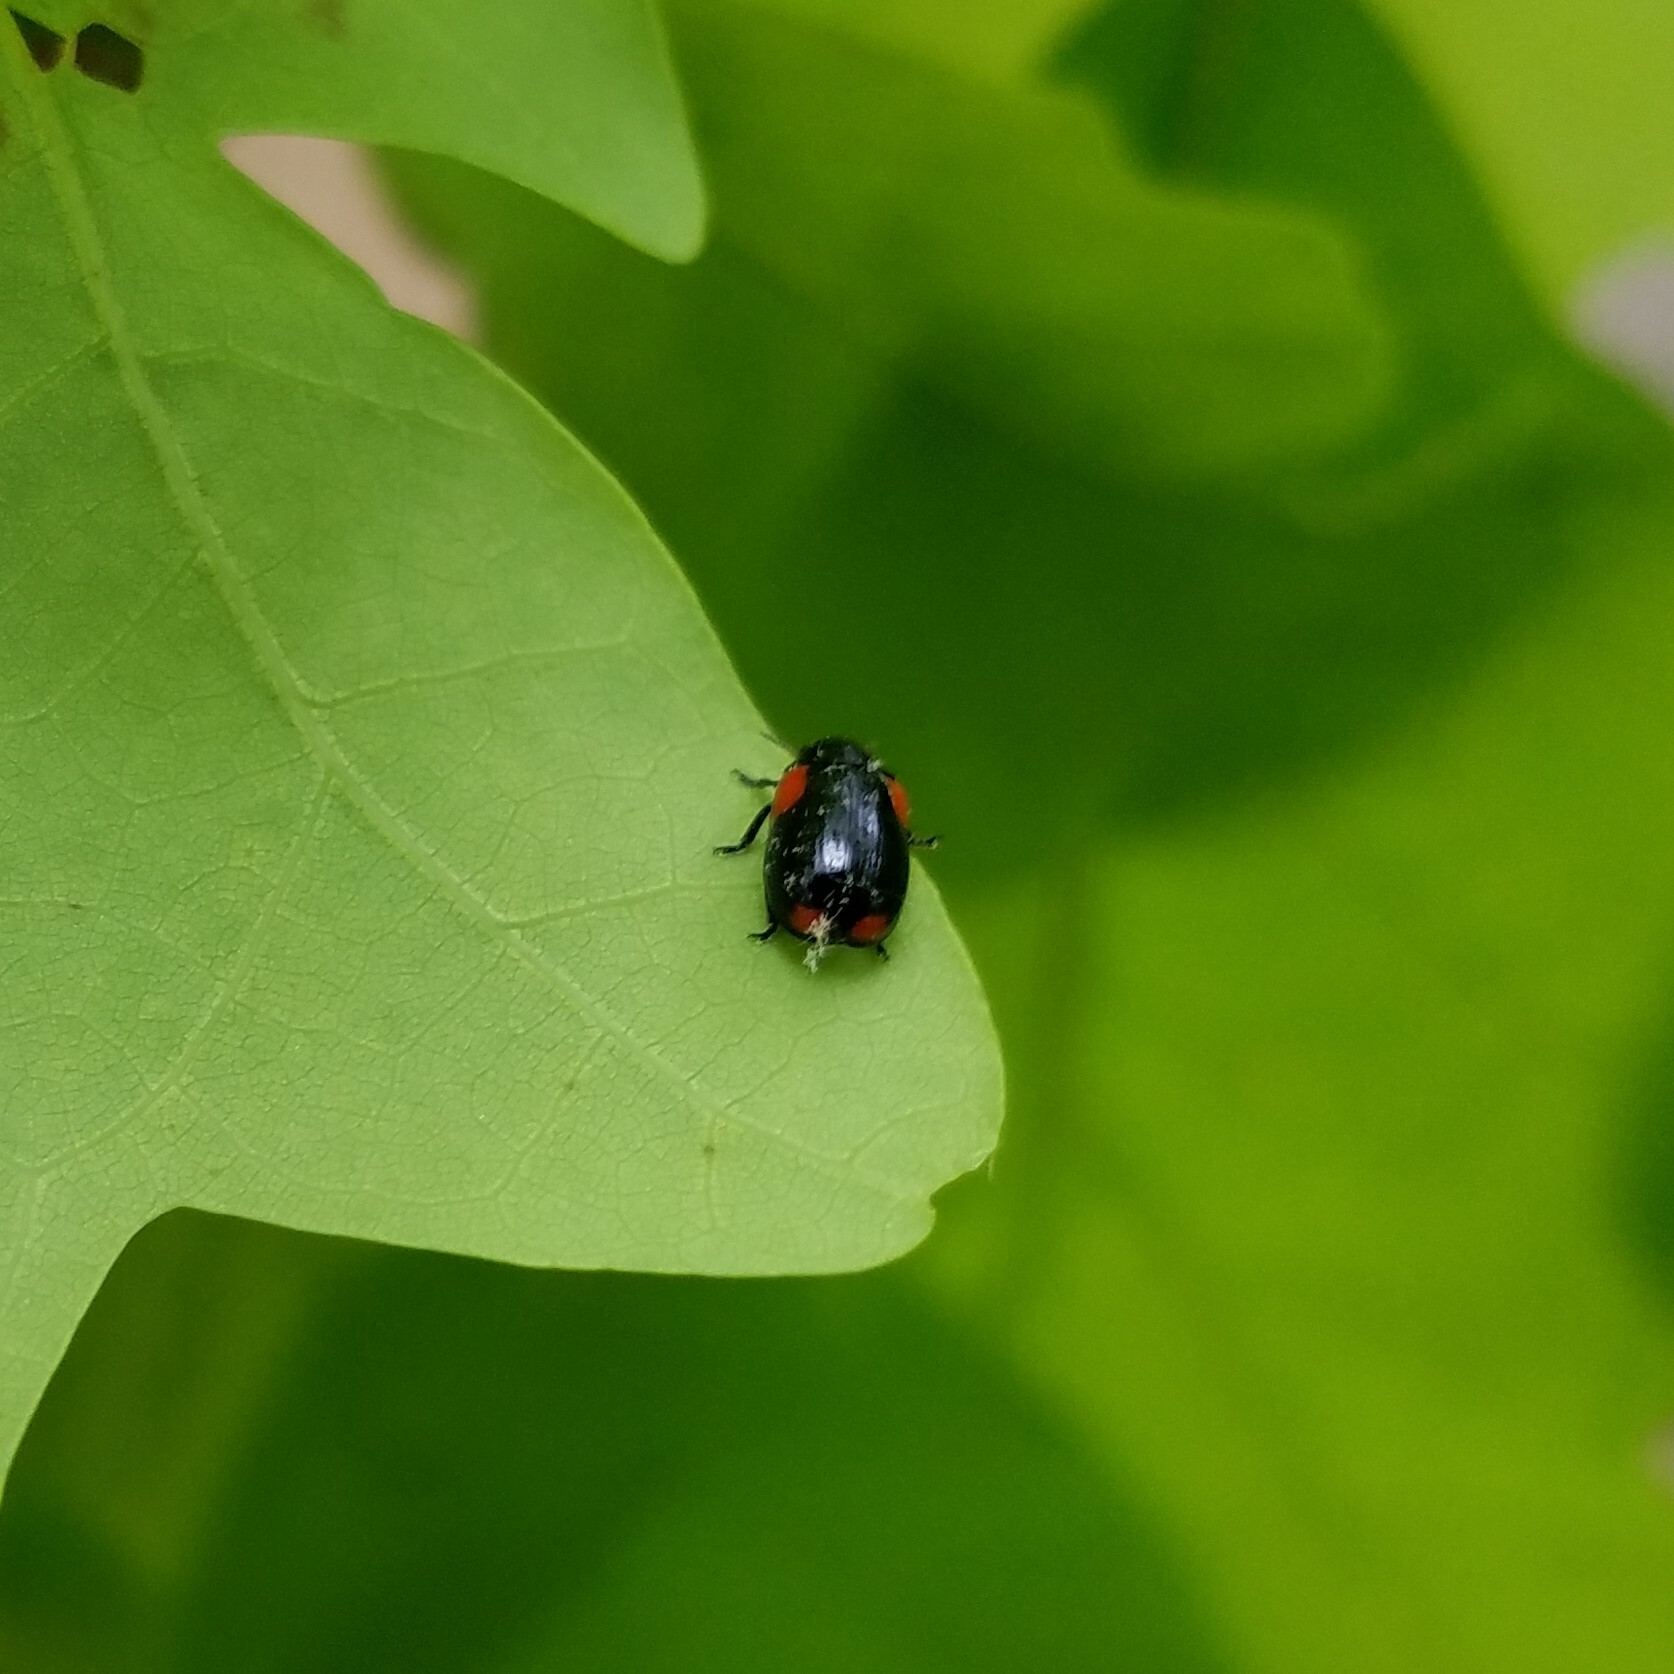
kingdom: Animalia
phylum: Arthropoda
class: Insecta
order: Coleoptera
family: Chrysomelidae
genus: Babia
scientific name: Babia quadriguttata
